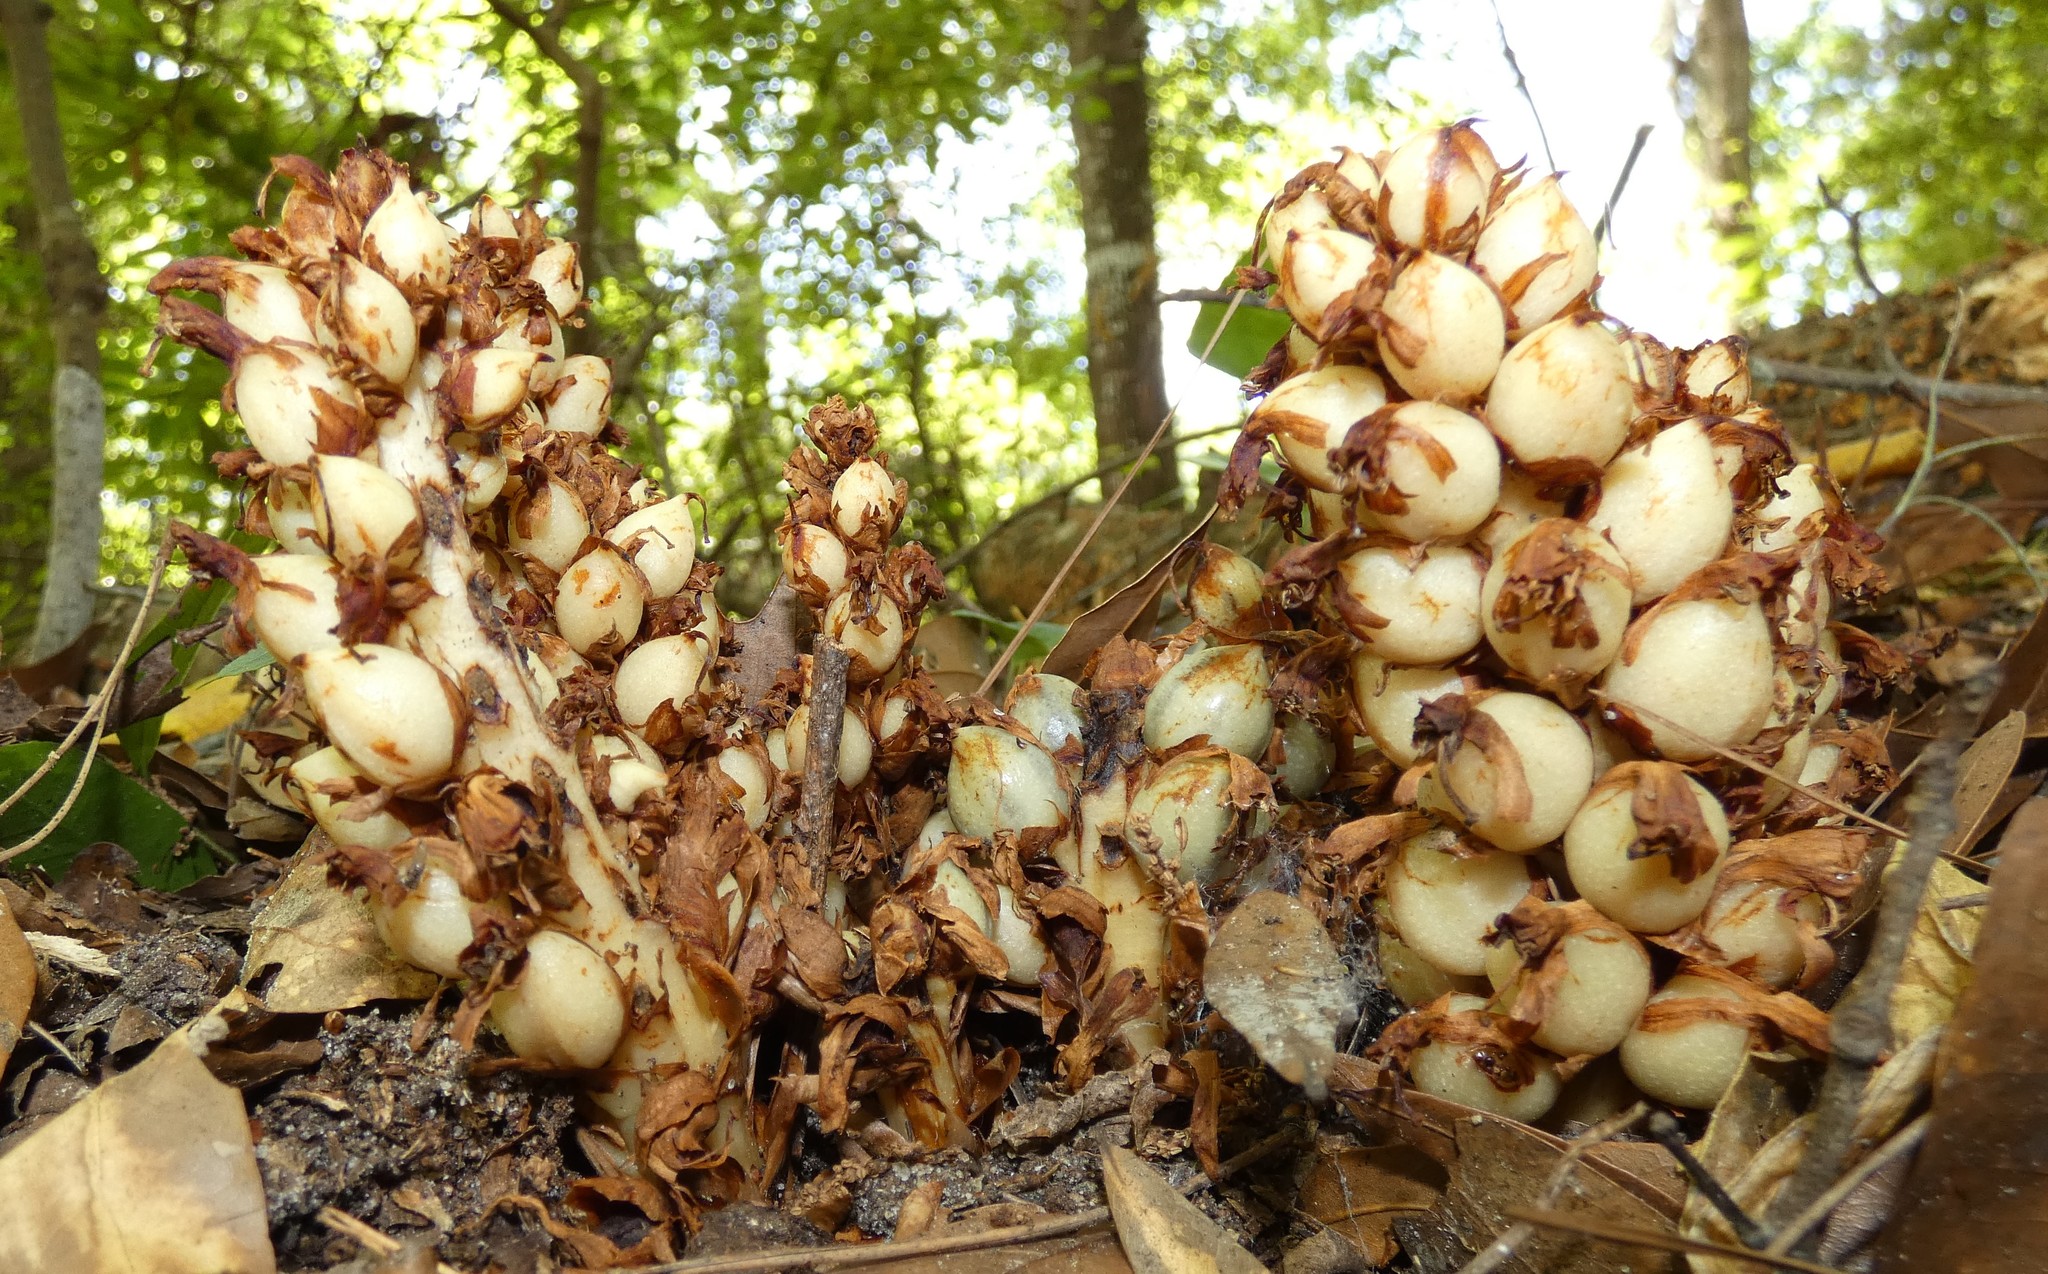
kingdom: Plantae
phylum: Tracheophyta
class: Magnoliopsida
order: Lamiales
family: Orobanchaceae
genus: Conopholis
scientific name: Conopholis americana
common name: American cancer-root
